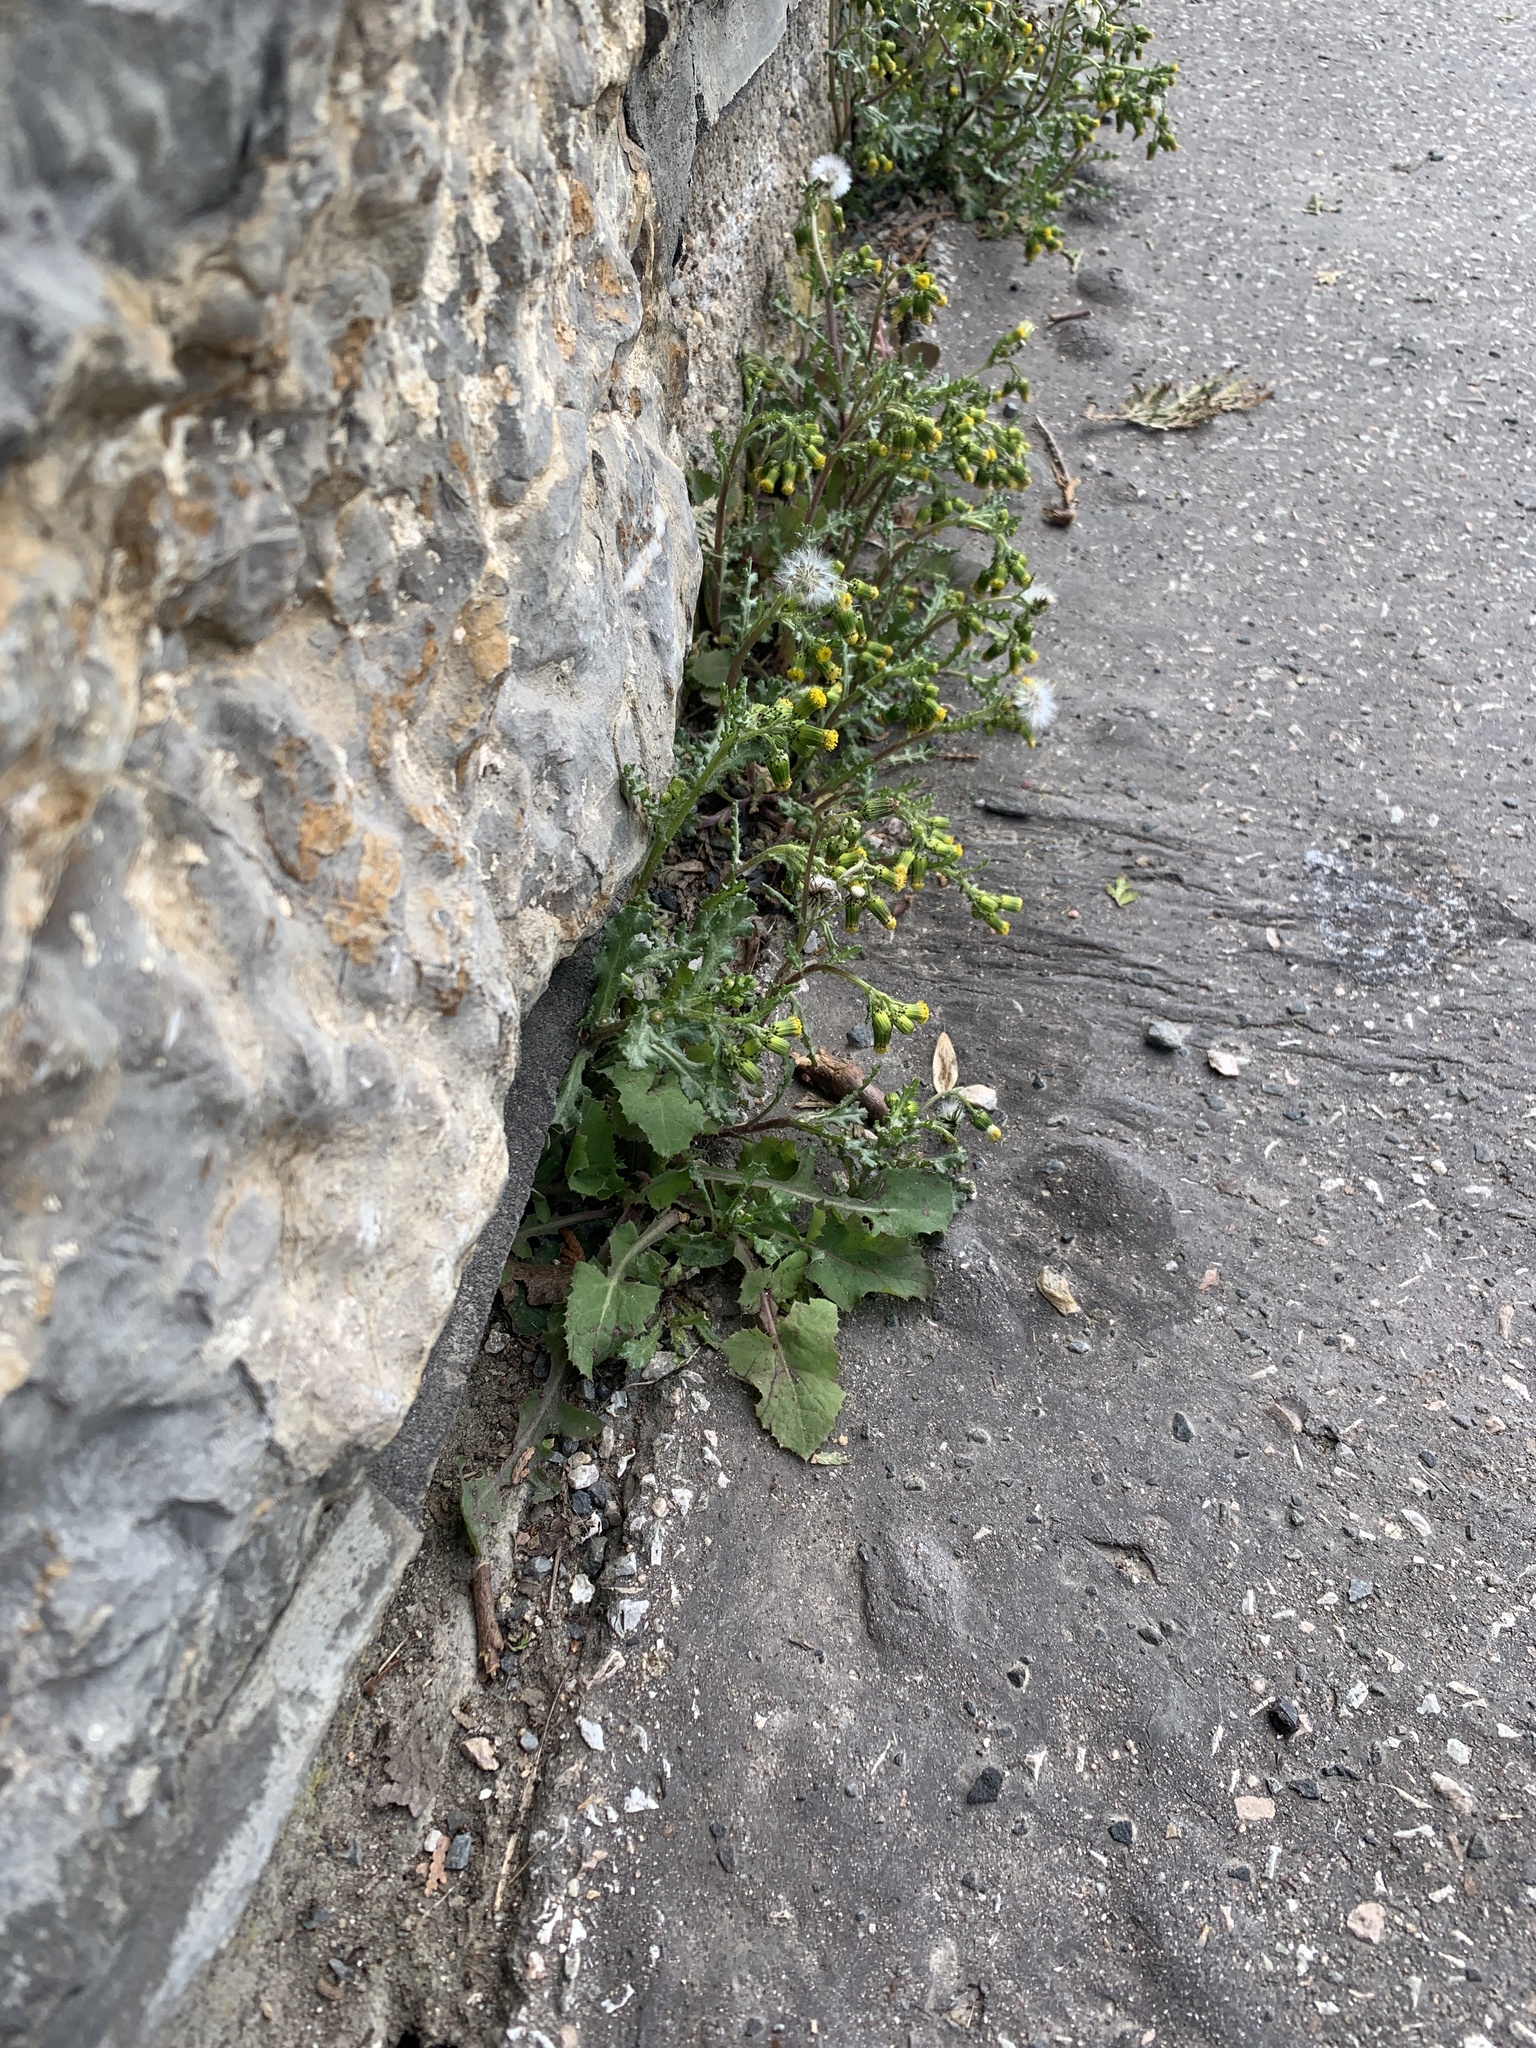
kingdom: Plantae
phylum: Tracheophyta
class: Magnoliopsida
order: Asterales
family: Asteraceae
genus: Senecio
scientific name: Senecio vulgaris
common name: Old-man-in-the-spring
